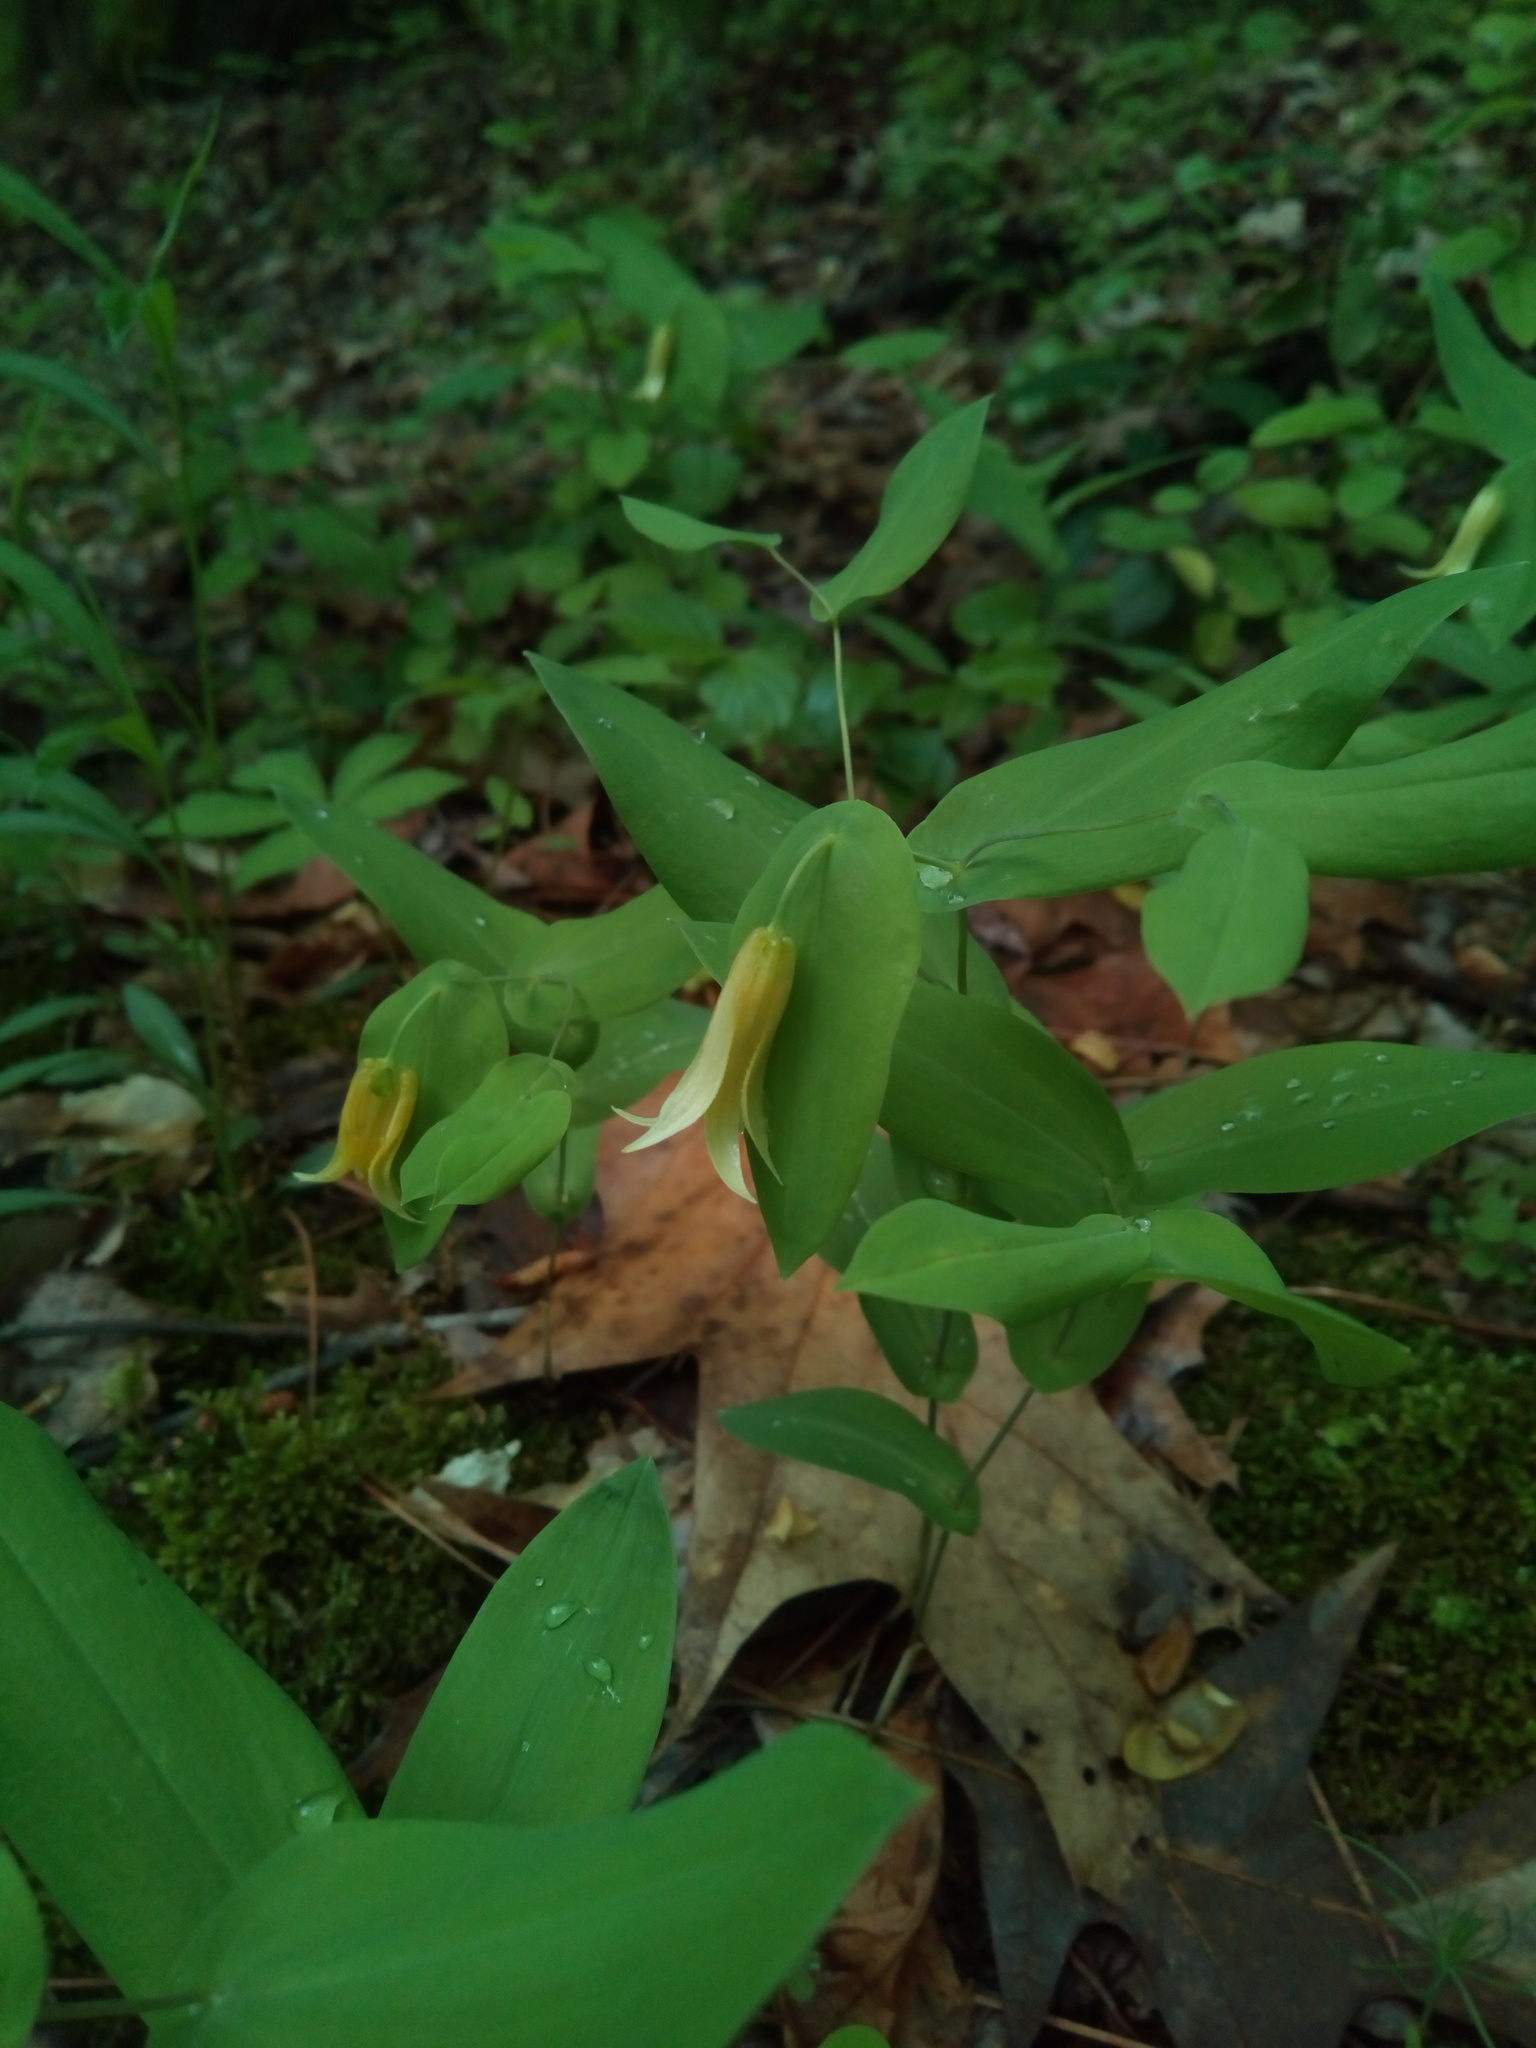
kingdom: Plantae
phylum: Tracheophyta
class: Liliopsida
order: Liliales
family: Colchicaceae
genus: Uvularia
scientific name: Uvularia perfoliata
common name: Perfoliate bellwort
